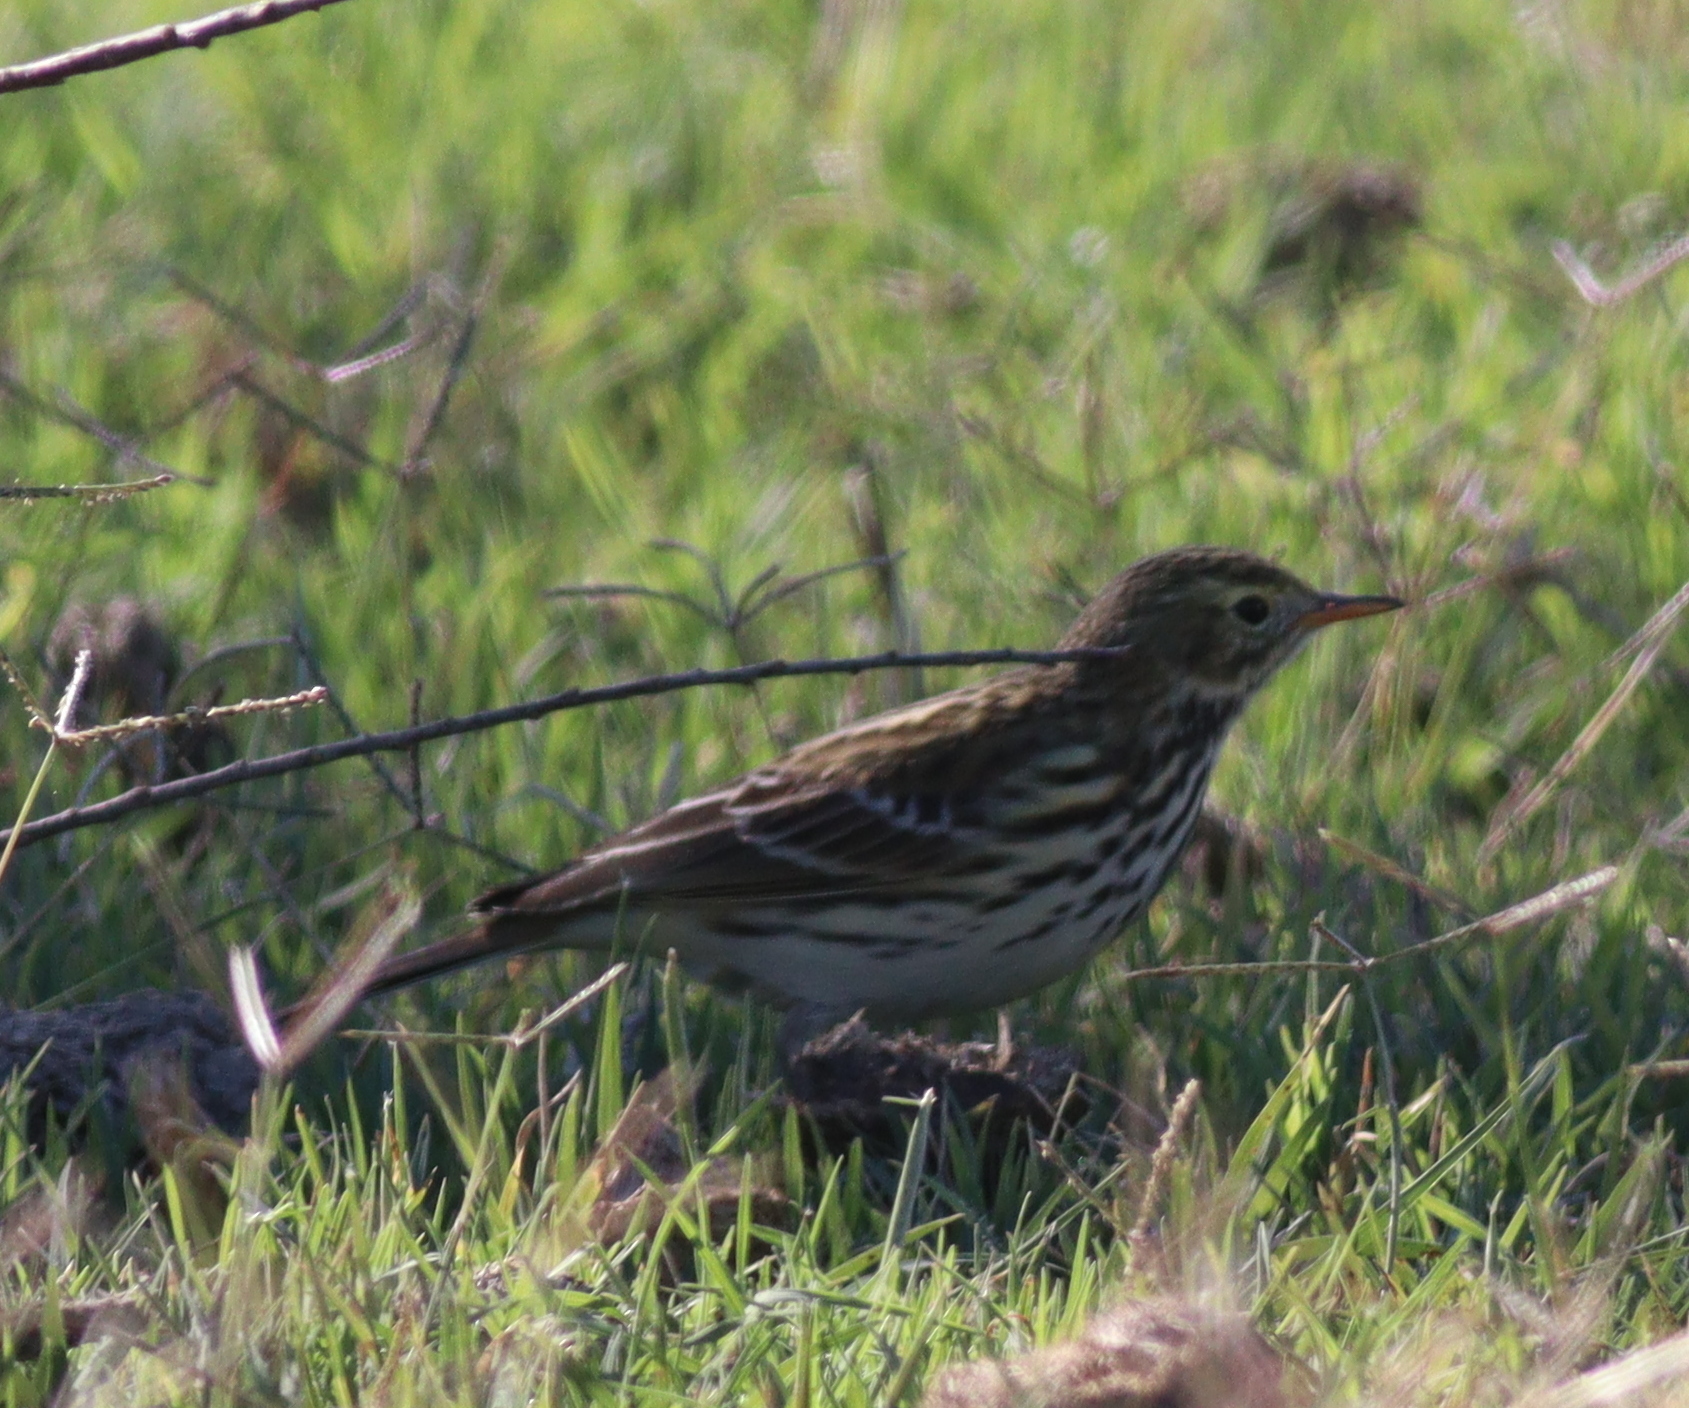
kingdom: Animalia
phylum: Chordata
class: Aves
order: Passeriformes
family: Motacillidae
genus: Anthus
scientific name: Anthus pratensis
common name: Meadow pipit
